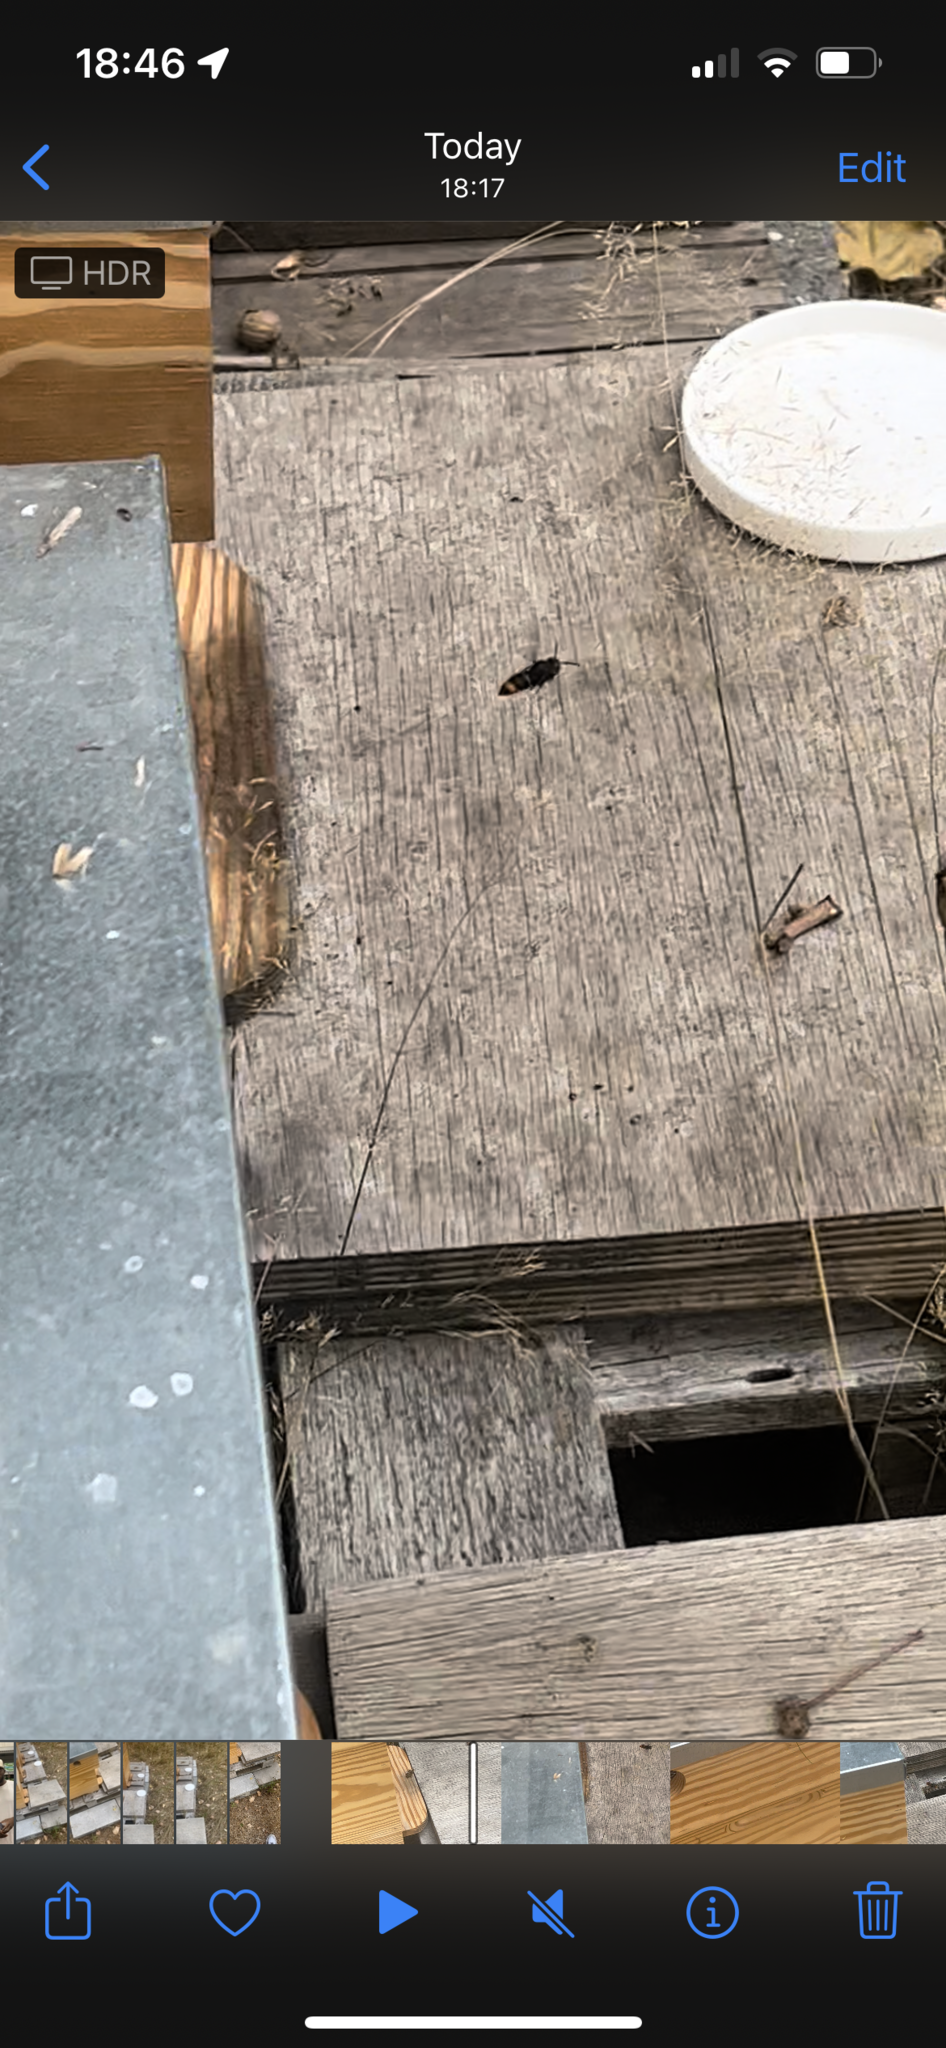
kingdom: Animalia
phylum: Arthropoda
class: Insecta
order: Hymenoptera
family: Vespidae
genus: Vespa
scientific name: Vespa velutina
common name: Asian hornet
